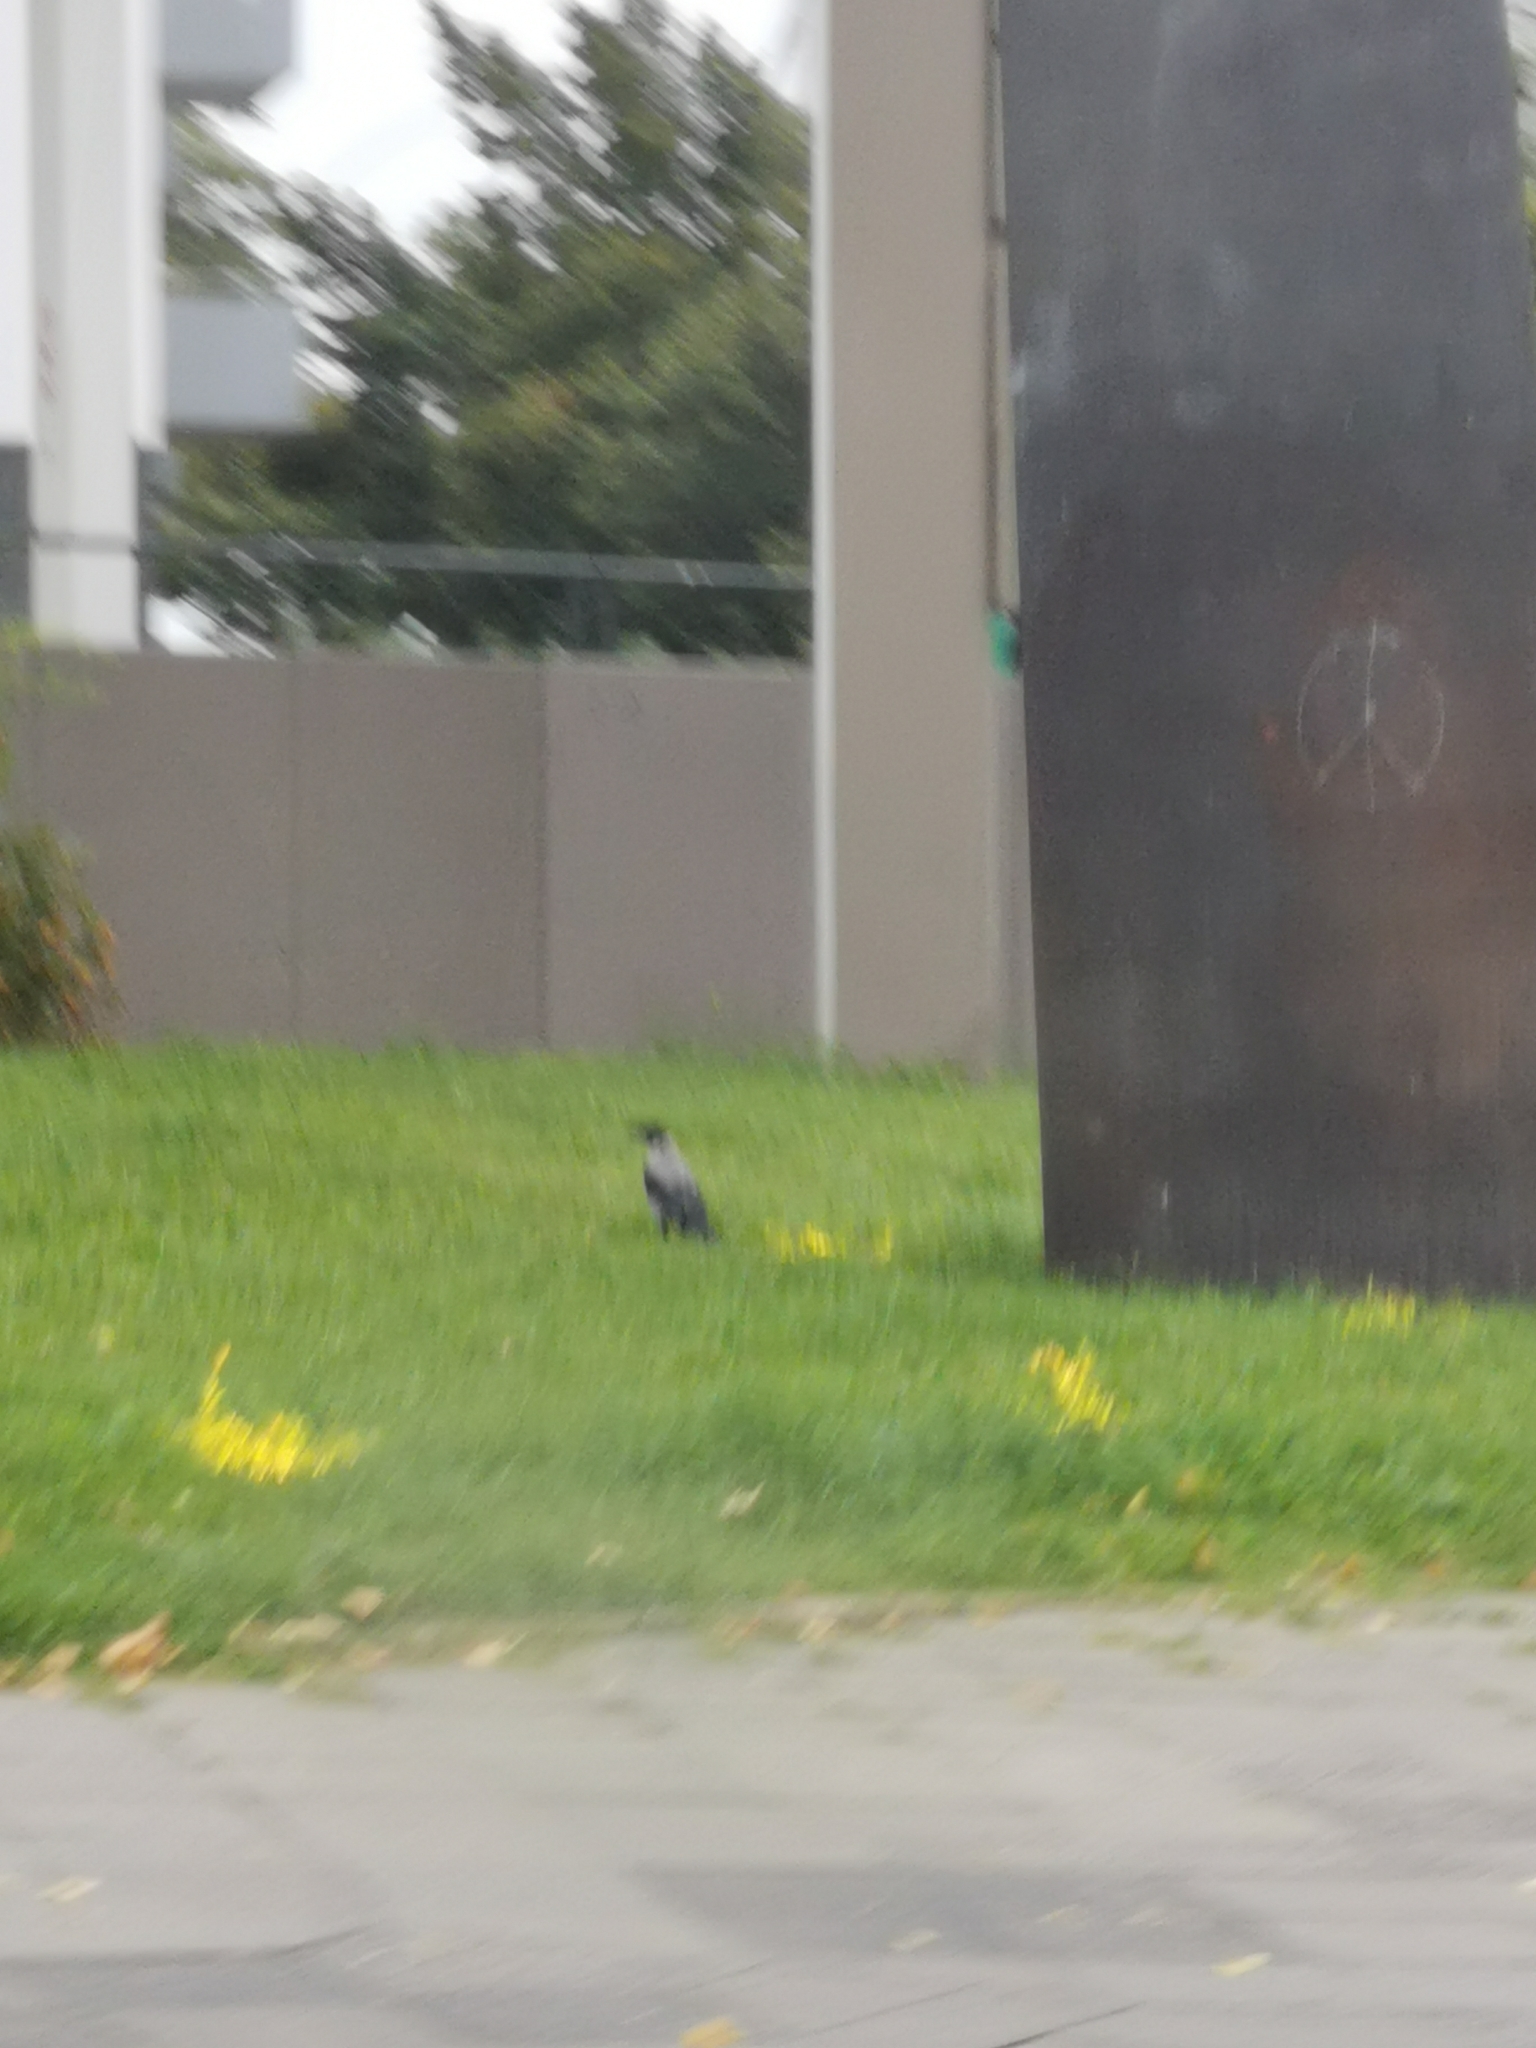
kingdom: Animalia
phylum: Chordata
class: Aves
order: Passeriformes
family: Corvidae
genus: Corvus
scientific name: Corvus cornix
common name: Hooded crow
